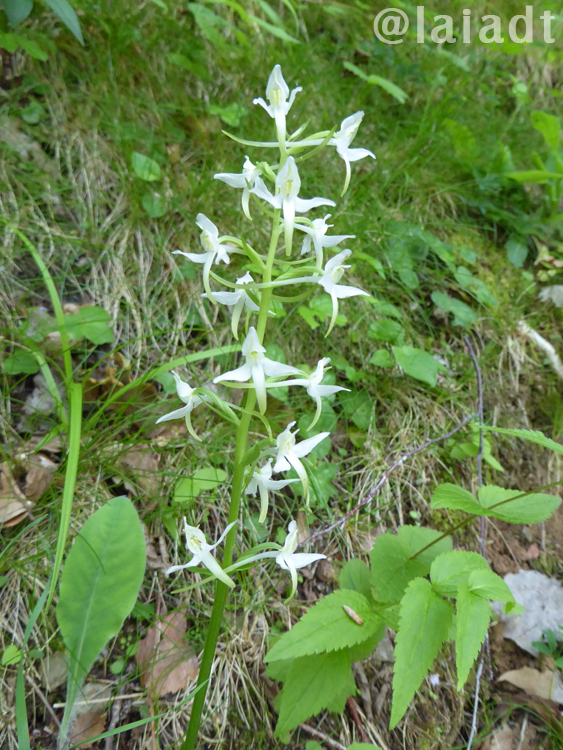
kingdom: Plantae
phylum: Tracheophyta
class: Liliopsida
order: Asparagales
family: Orchidaceae
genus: Platanthera
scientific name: Platanthera bifolia
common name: Lesser butterfly-orchid
